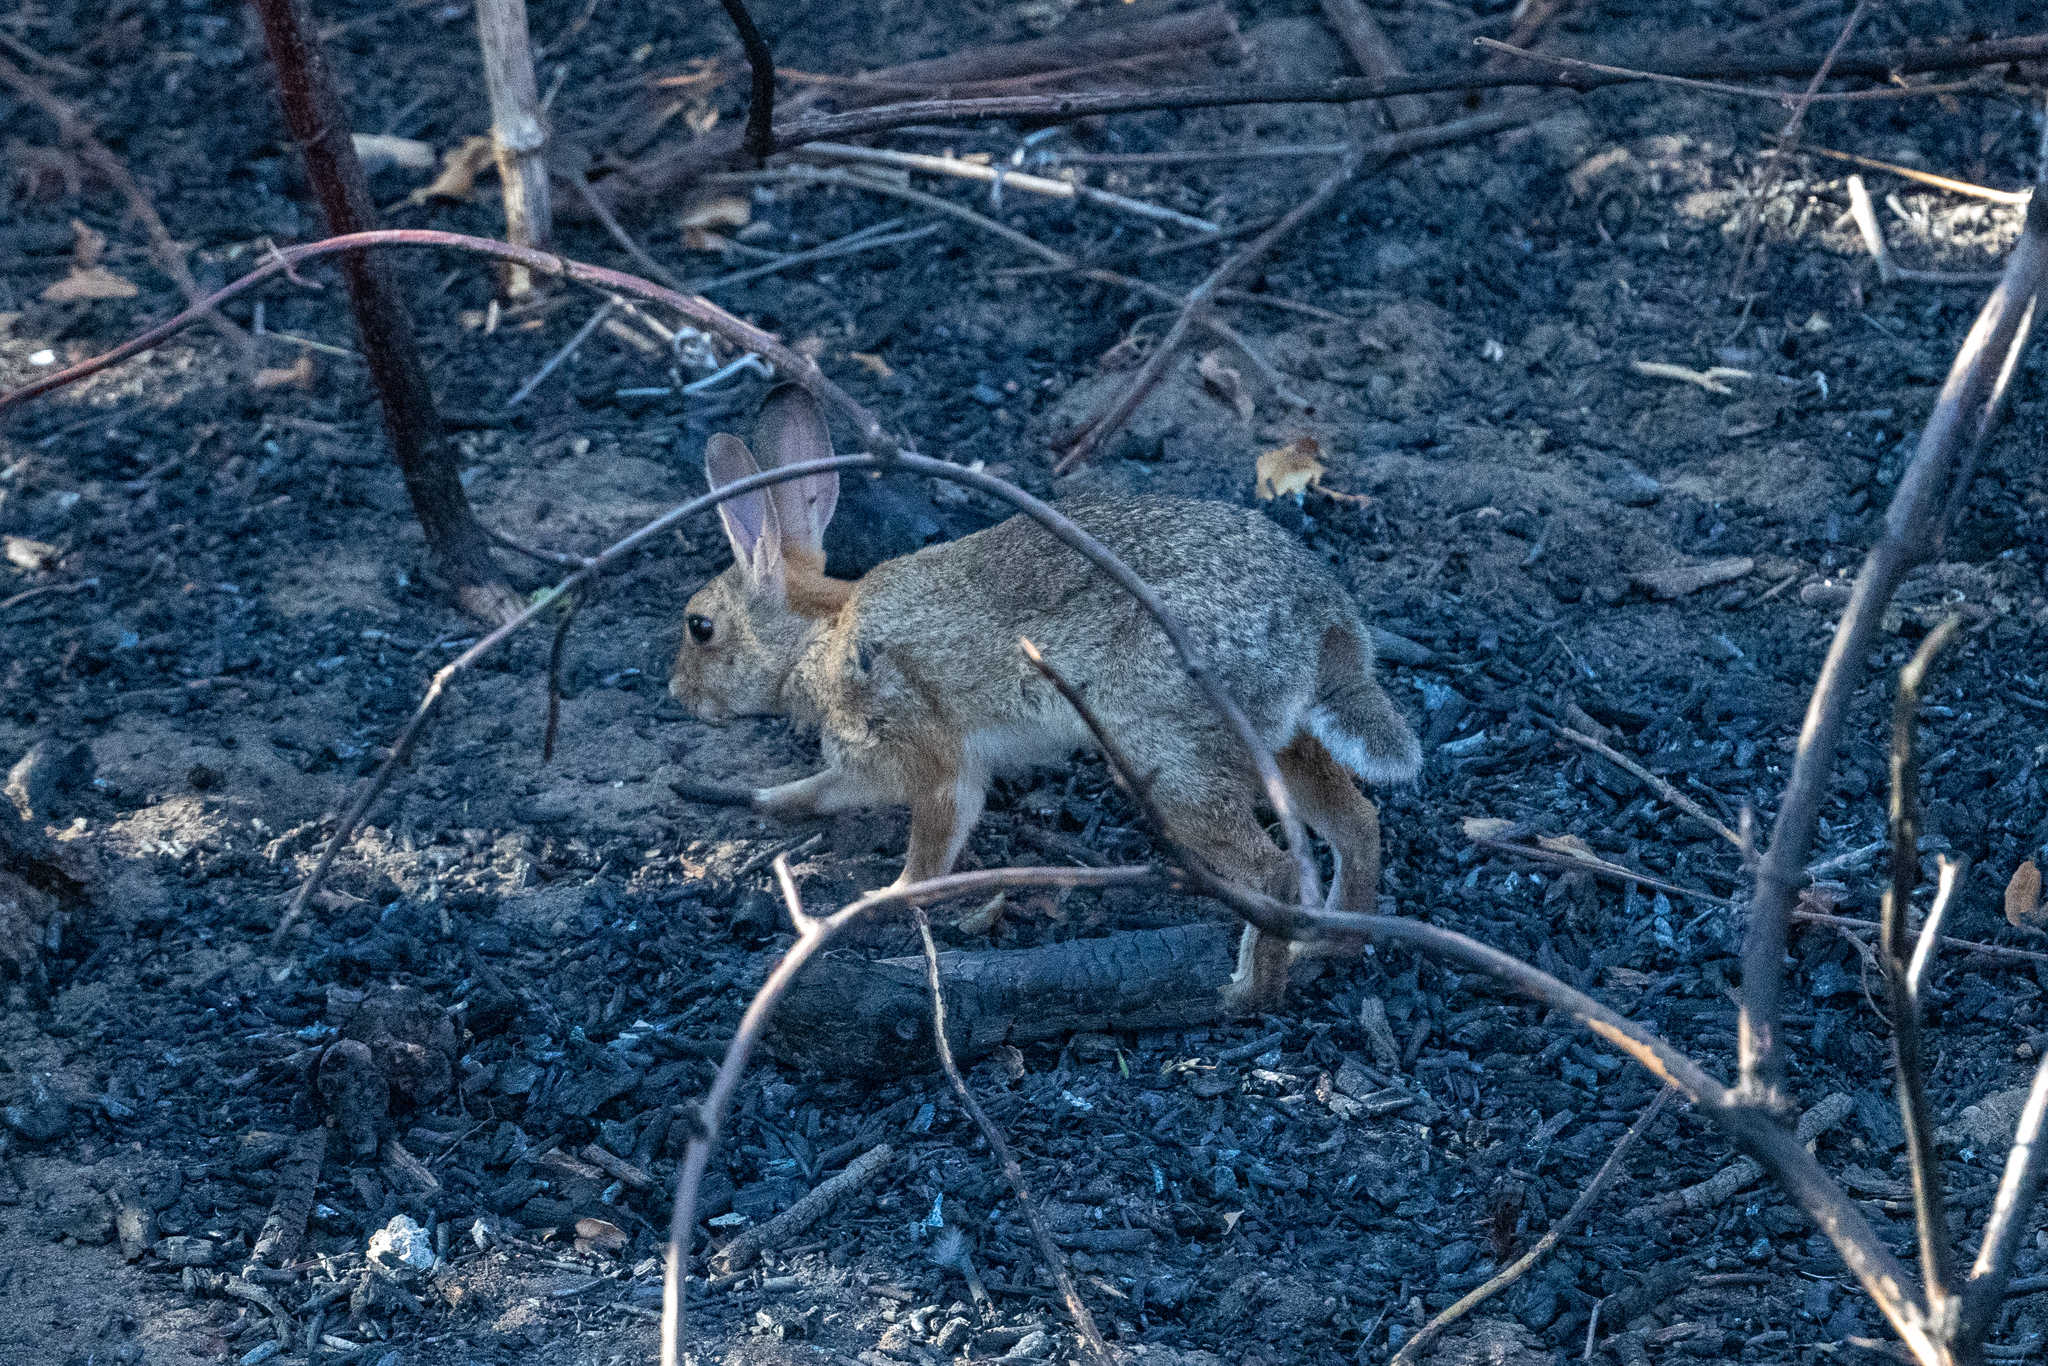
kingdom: Animalia
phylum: Chordata
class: Mammalia
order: Lagomorpha
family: Leporidae
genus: Sylvilagus
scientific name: Sylvilagus audubonii
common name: Desert cottontail
